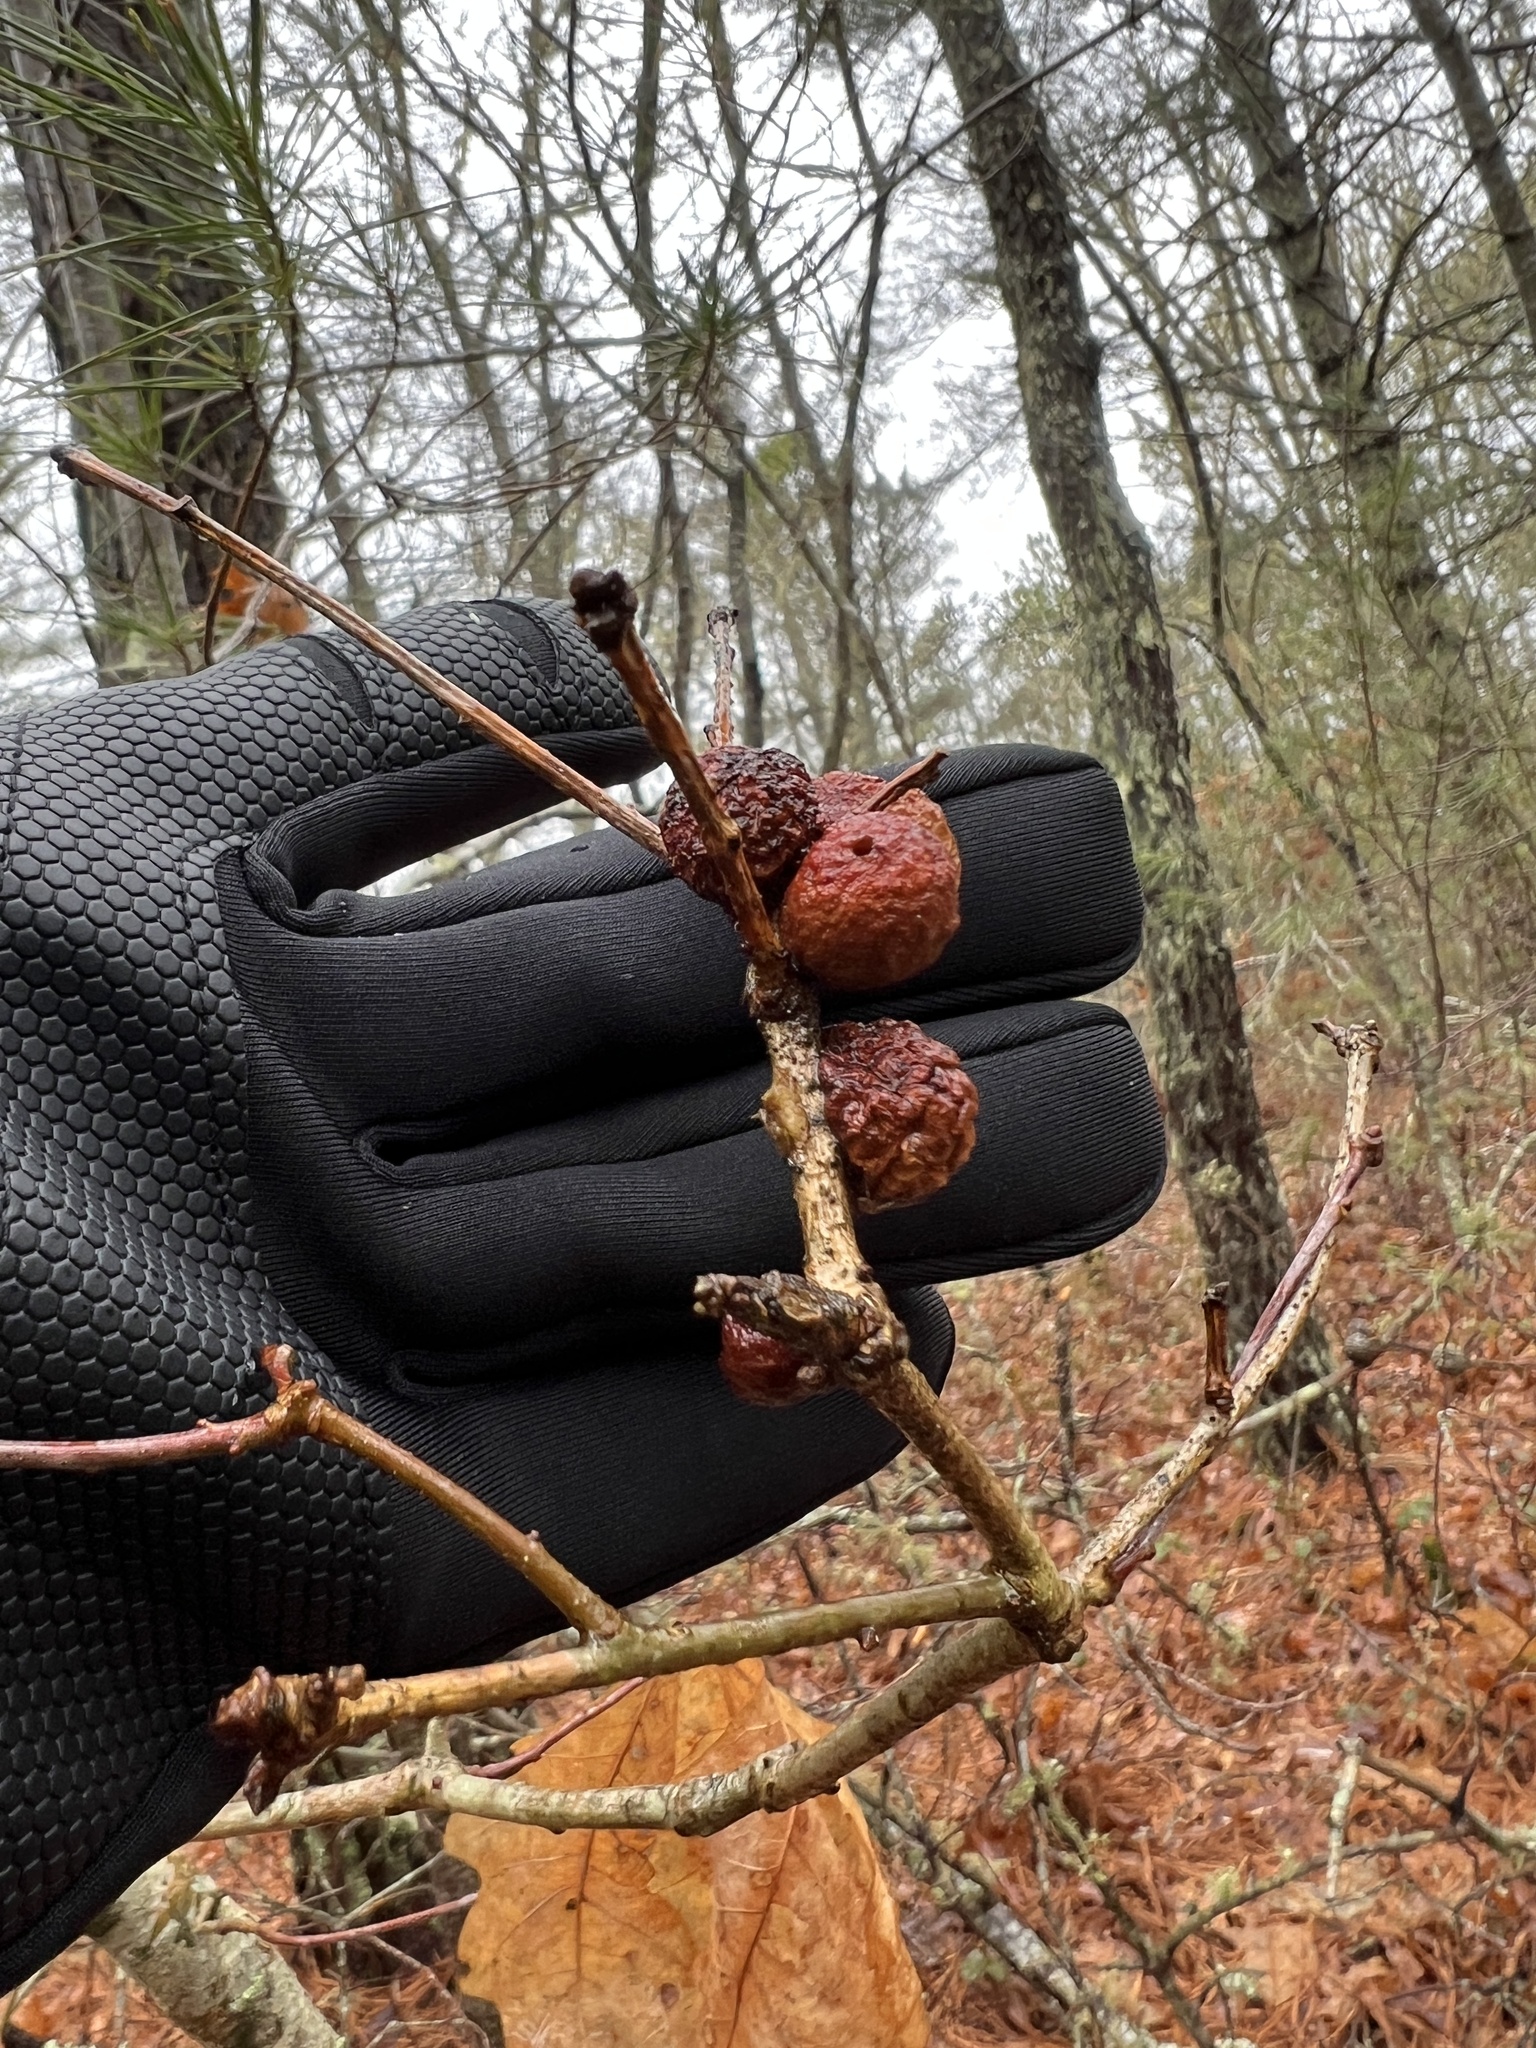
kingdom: Animalia
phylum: Arthropoda
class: Insecta
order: Hymenoptera
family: Cynipidae
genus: Disholcaspis
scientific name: Disholcaspis
